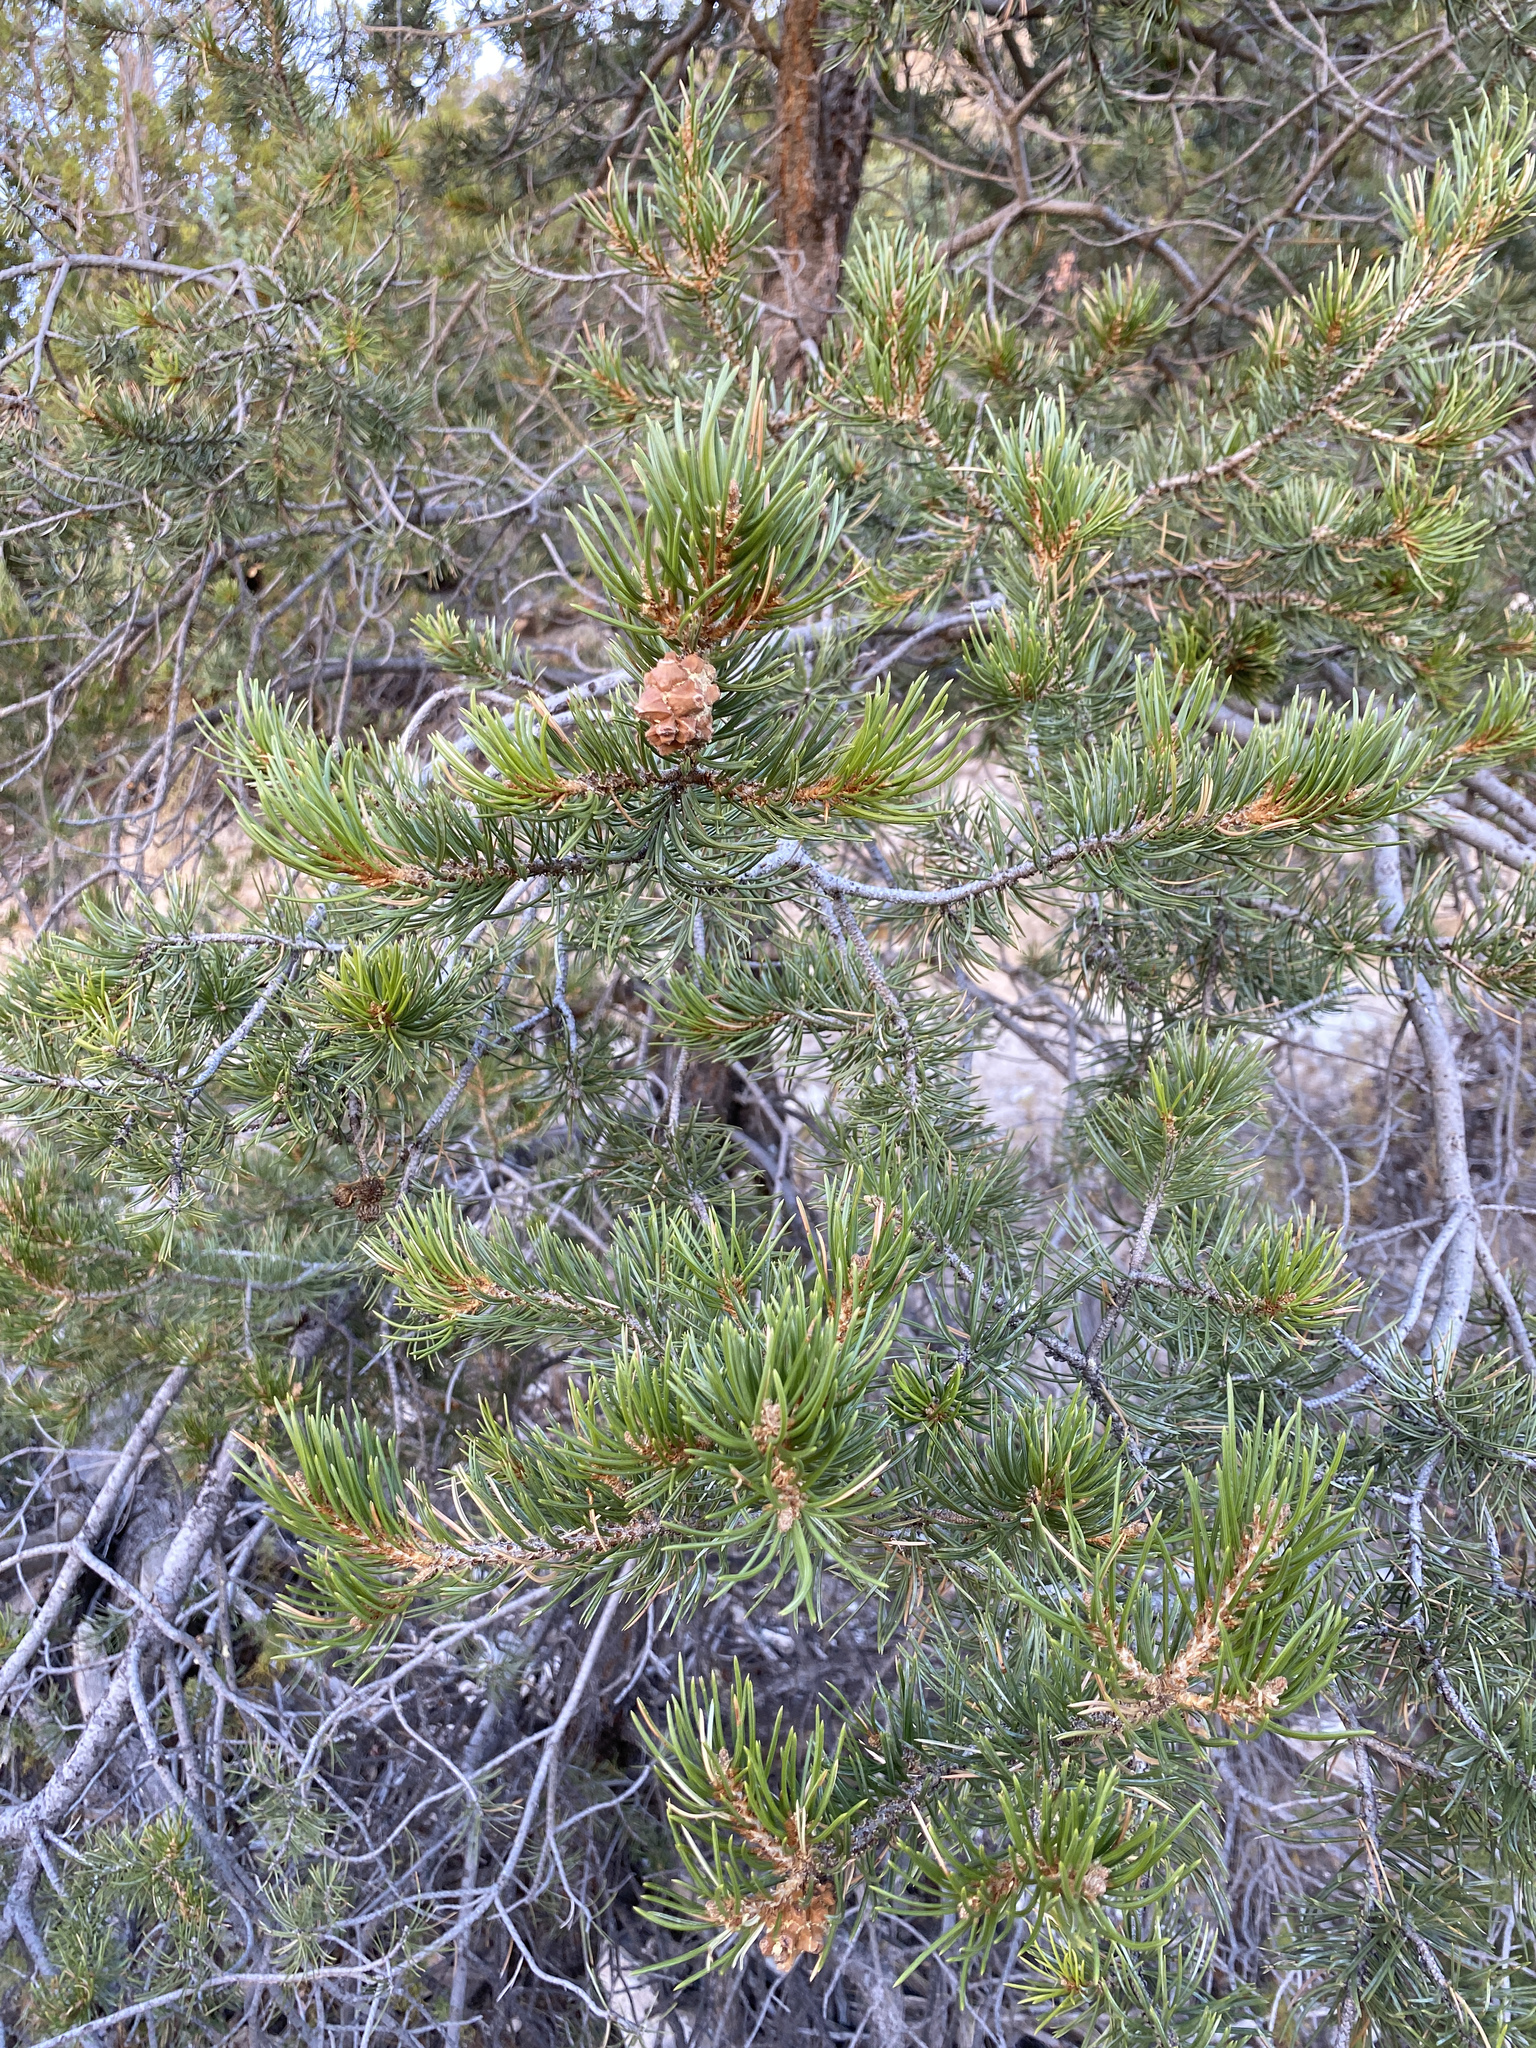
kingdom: Plantae
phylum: Tracheophyta
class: Pinopsida
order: Pinales
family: Pinaceae
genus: Pinus
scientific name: Pinus edulis
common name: Colorado pinyon
